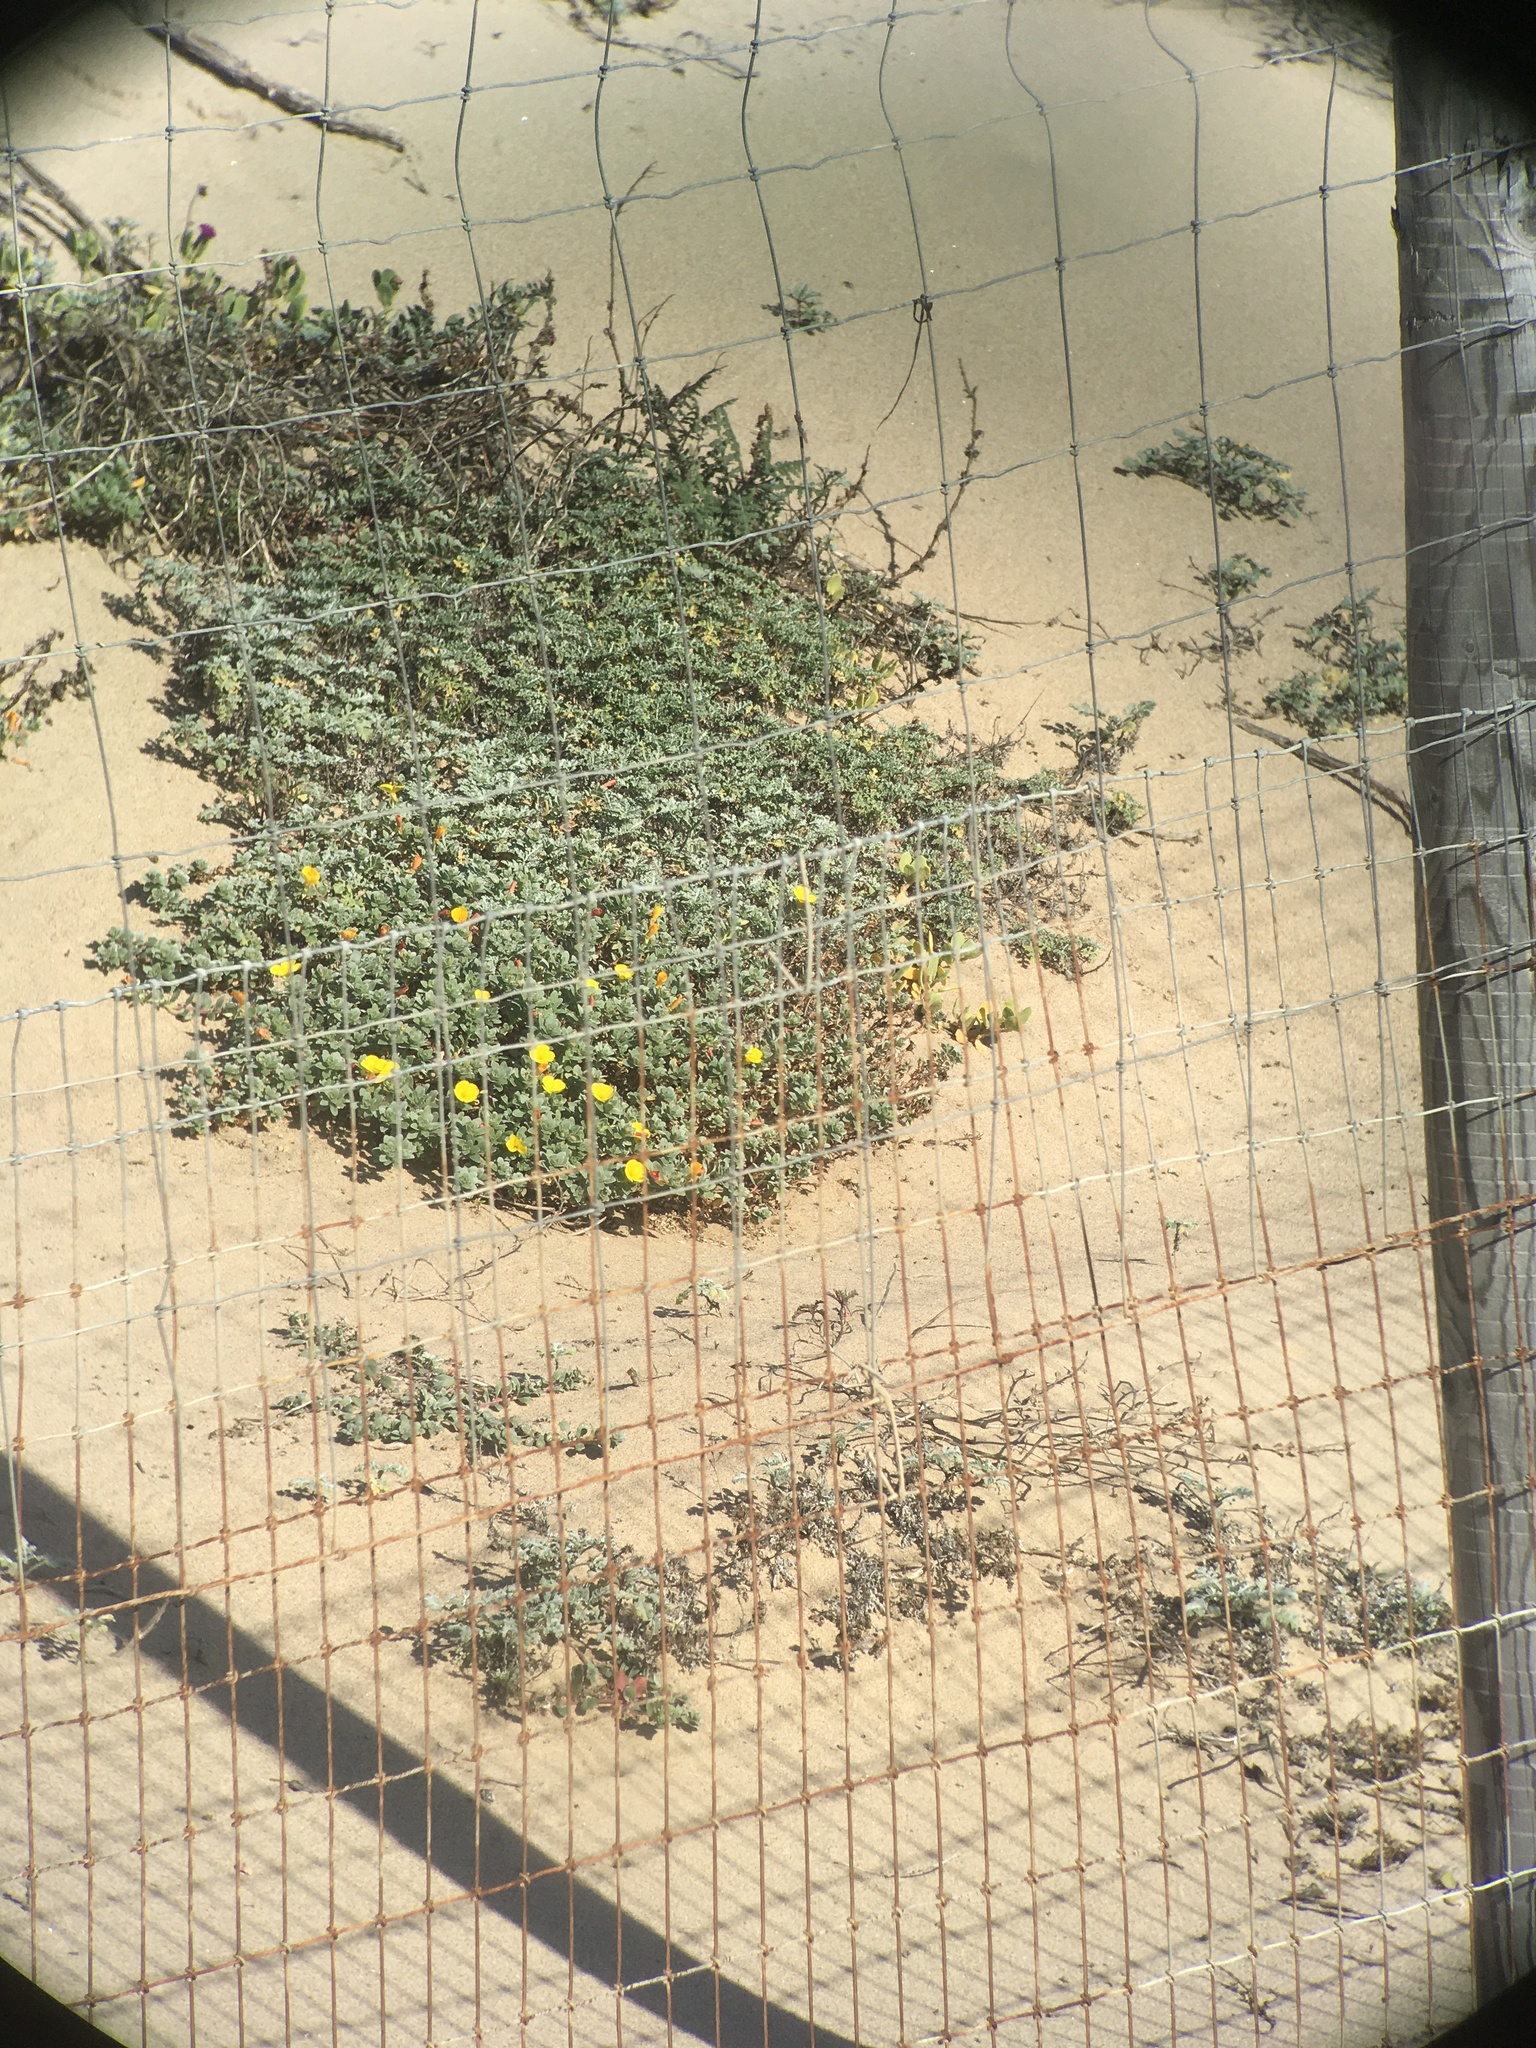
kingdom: Plantae
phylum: Tracheophyta
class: Magnoliopsida
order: Myrtales
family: Onagraceae
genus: Camissoniopsis
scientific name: Camissoniopsis cheiranthifolia
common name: Beach suncup
